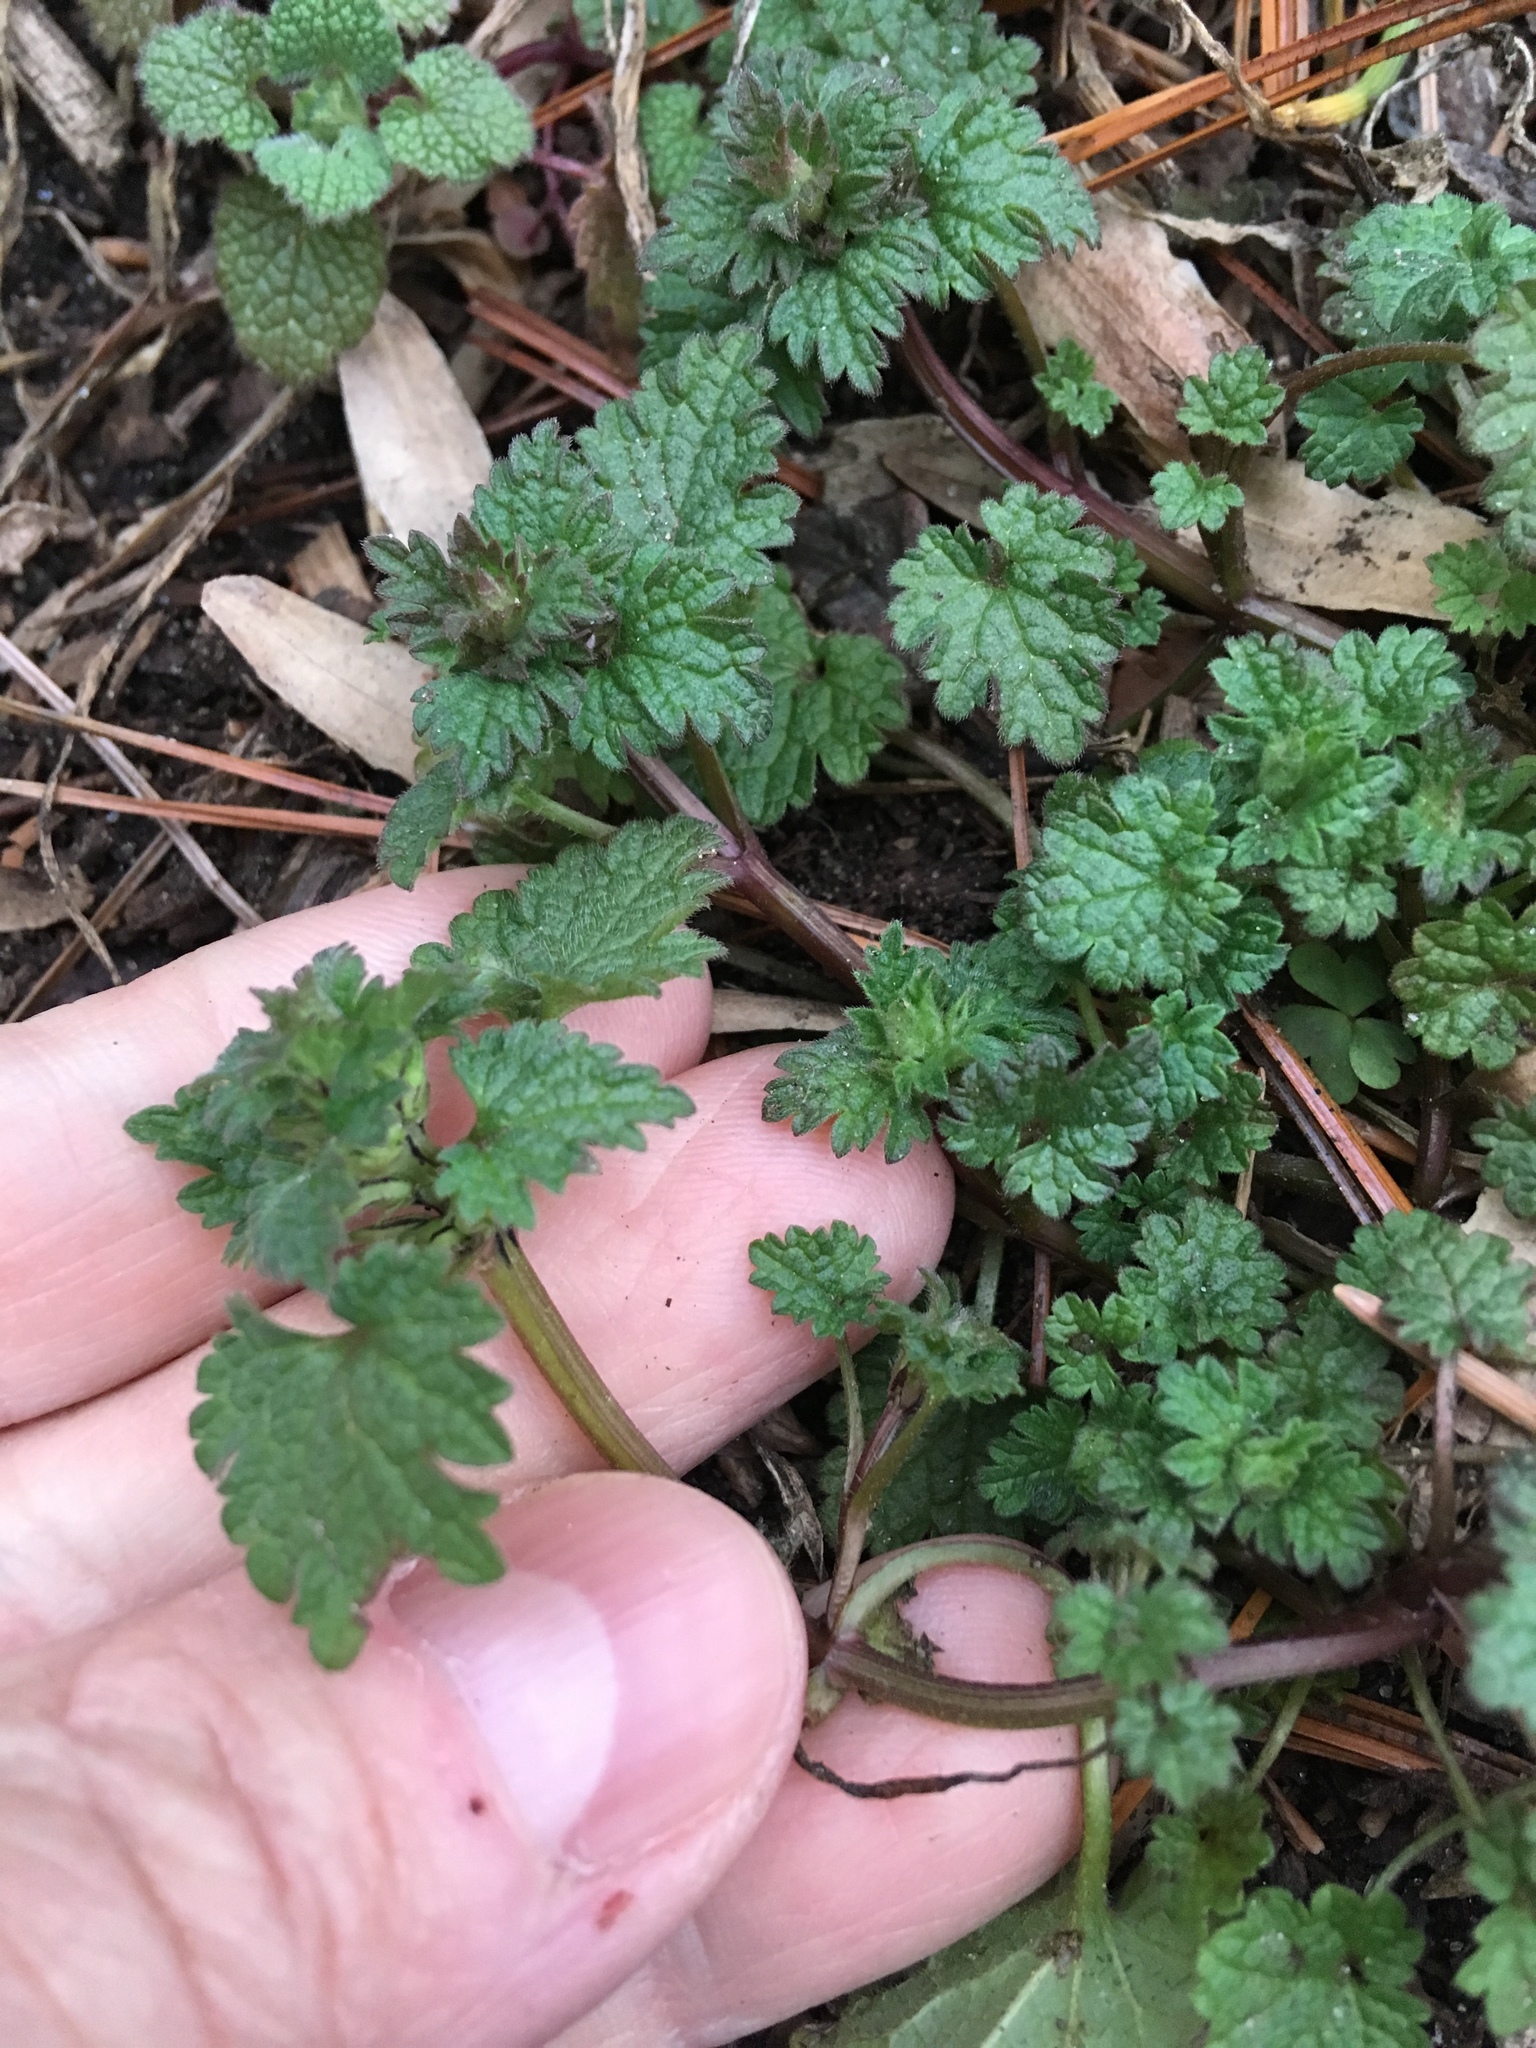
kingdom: Plantae
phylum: Tracheophyta
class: Magnoliopsida
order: Lamiales
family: Lamiaceae
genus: Lamium
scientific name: Lamium hybridum
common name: Cut-leaved dead-nettle
